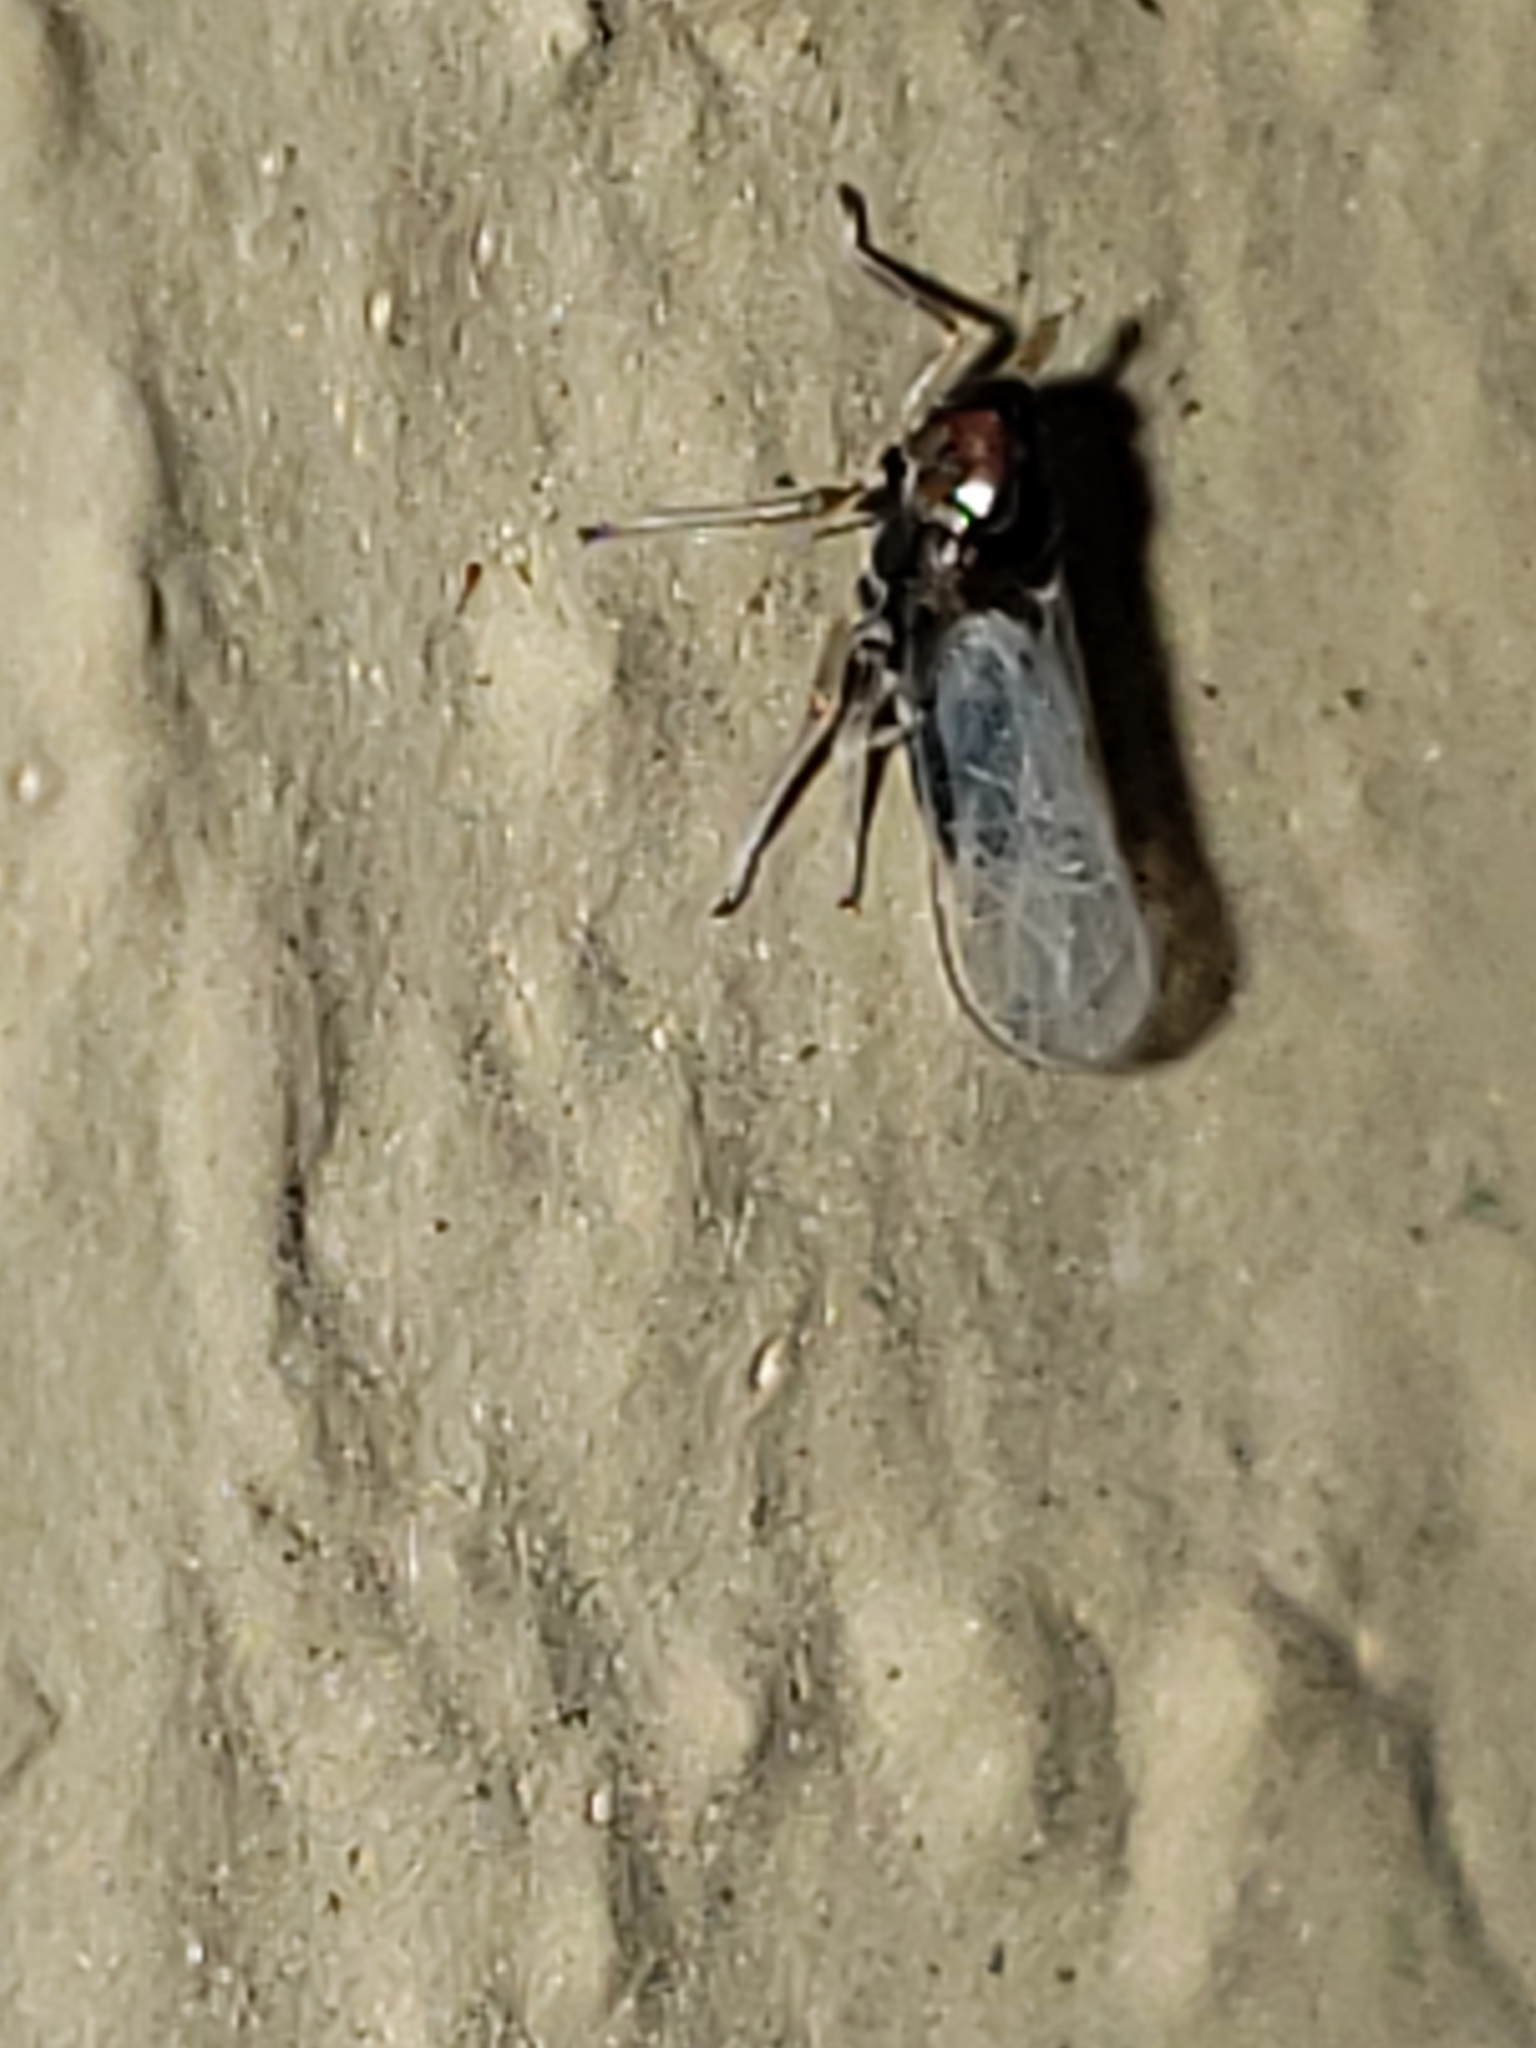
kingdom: Animalia
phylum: Arthropoda
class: Insecta
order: Hemiptera
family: Delphacidae
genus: Pissonotus
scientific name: Pissonotus binotatus
